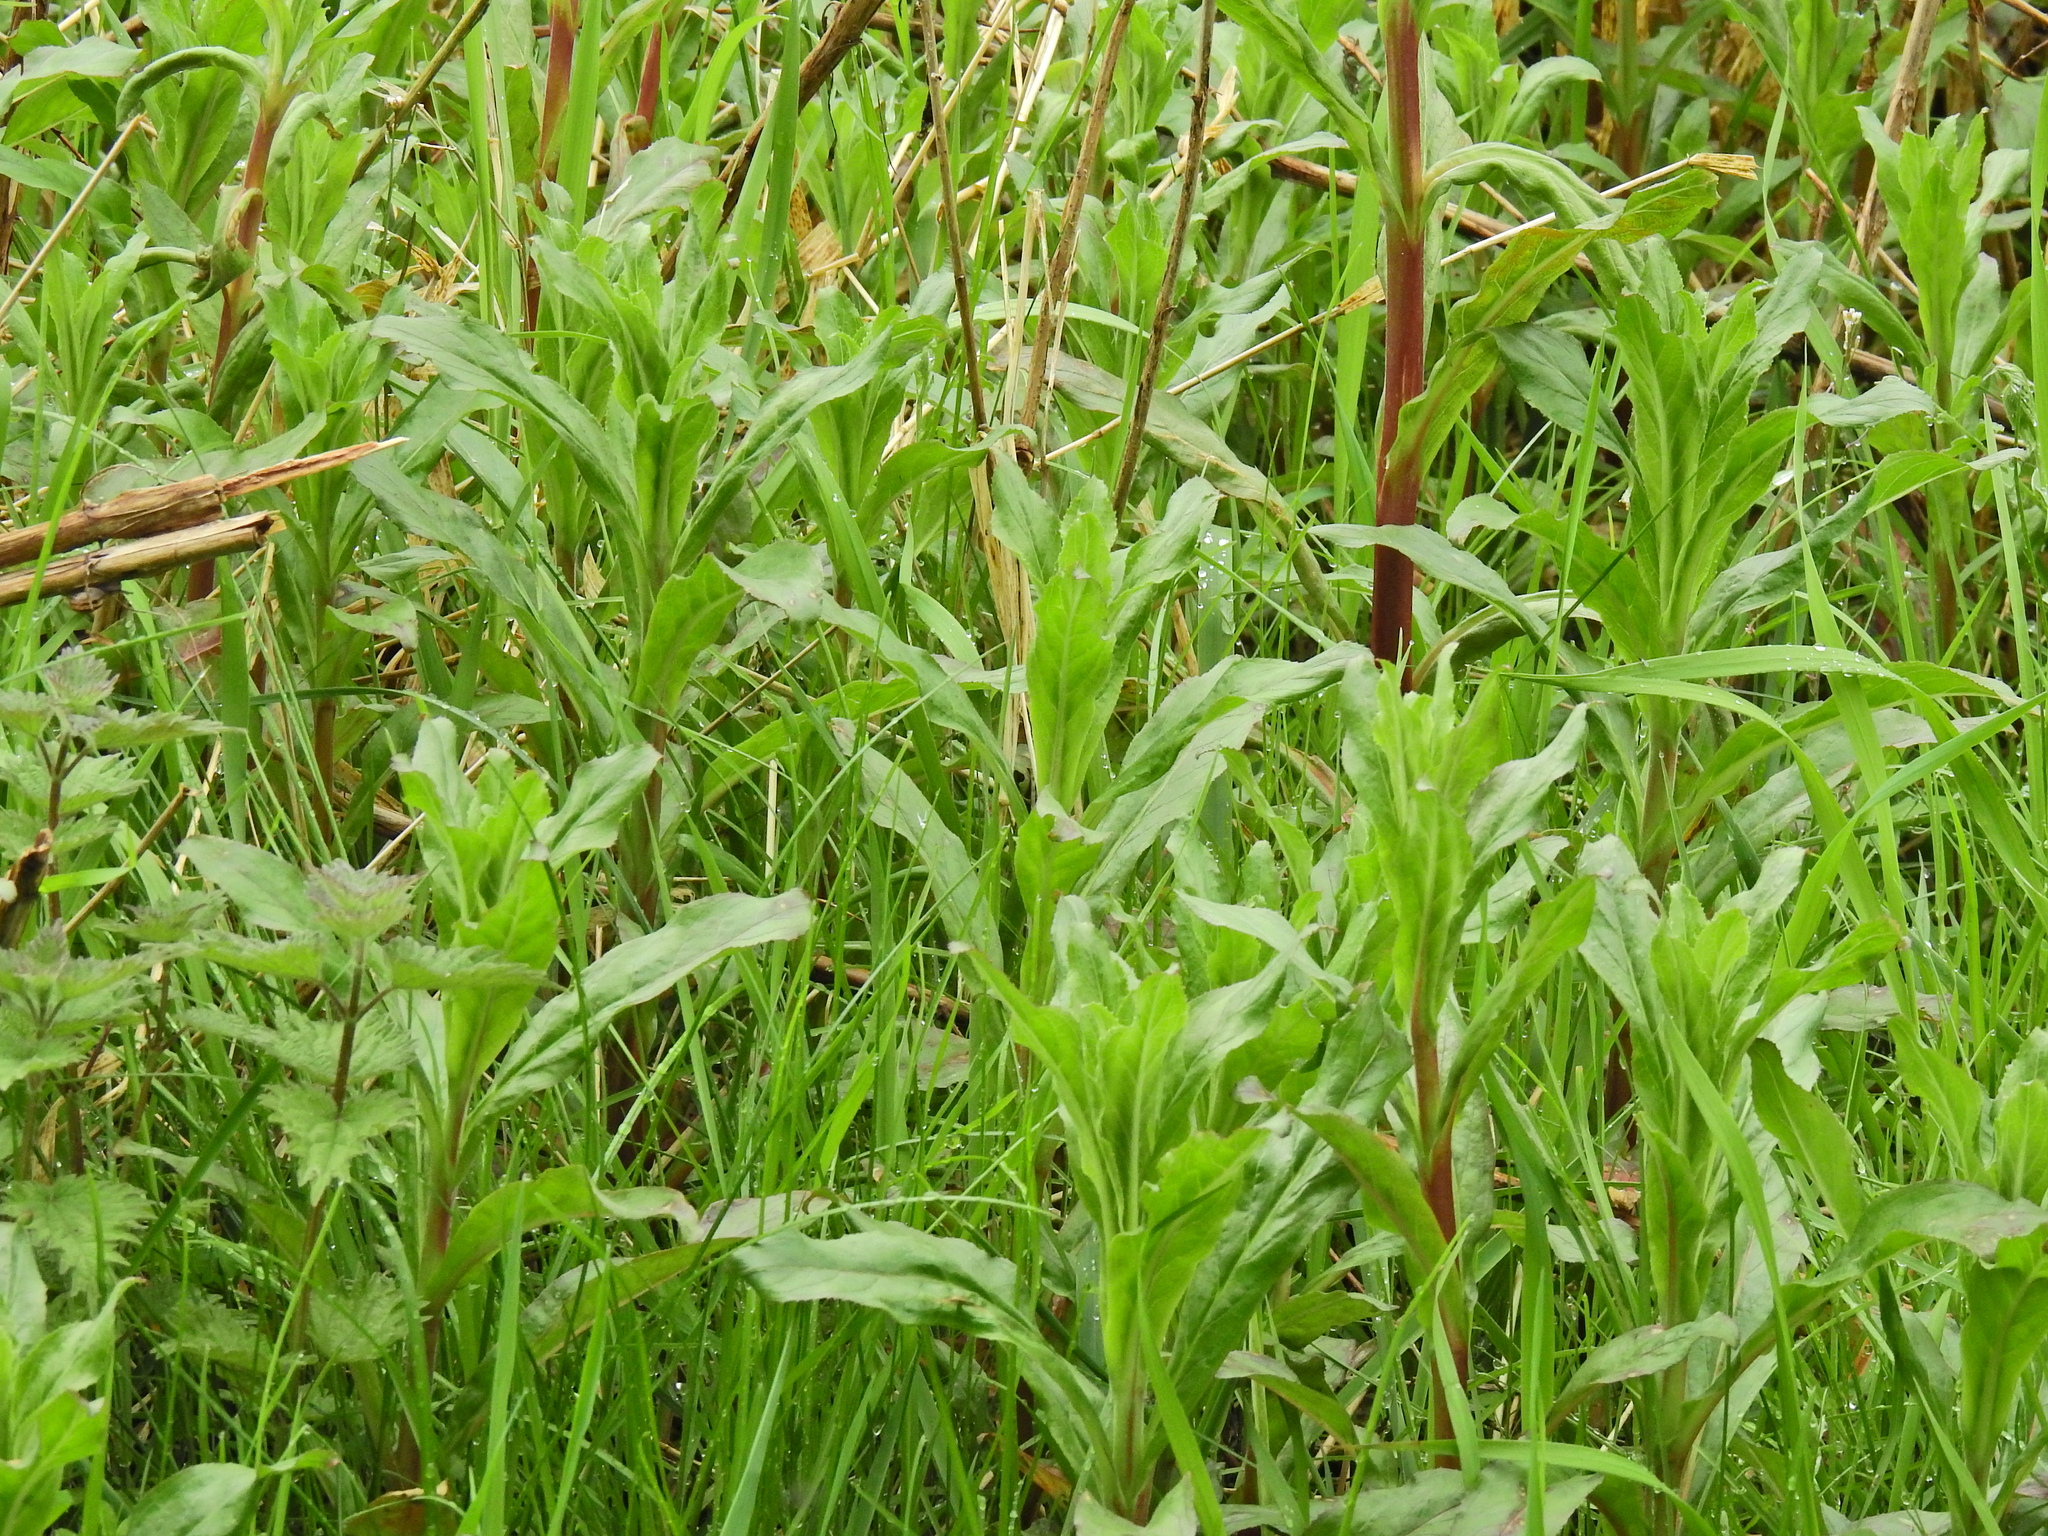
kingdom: Plantae
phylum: Tracheophyta
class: Magnoliopsida
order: Myrtales
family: Onagraceae
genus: Epilobium
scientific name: Epilobium hirsutum
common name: Great willowherb
